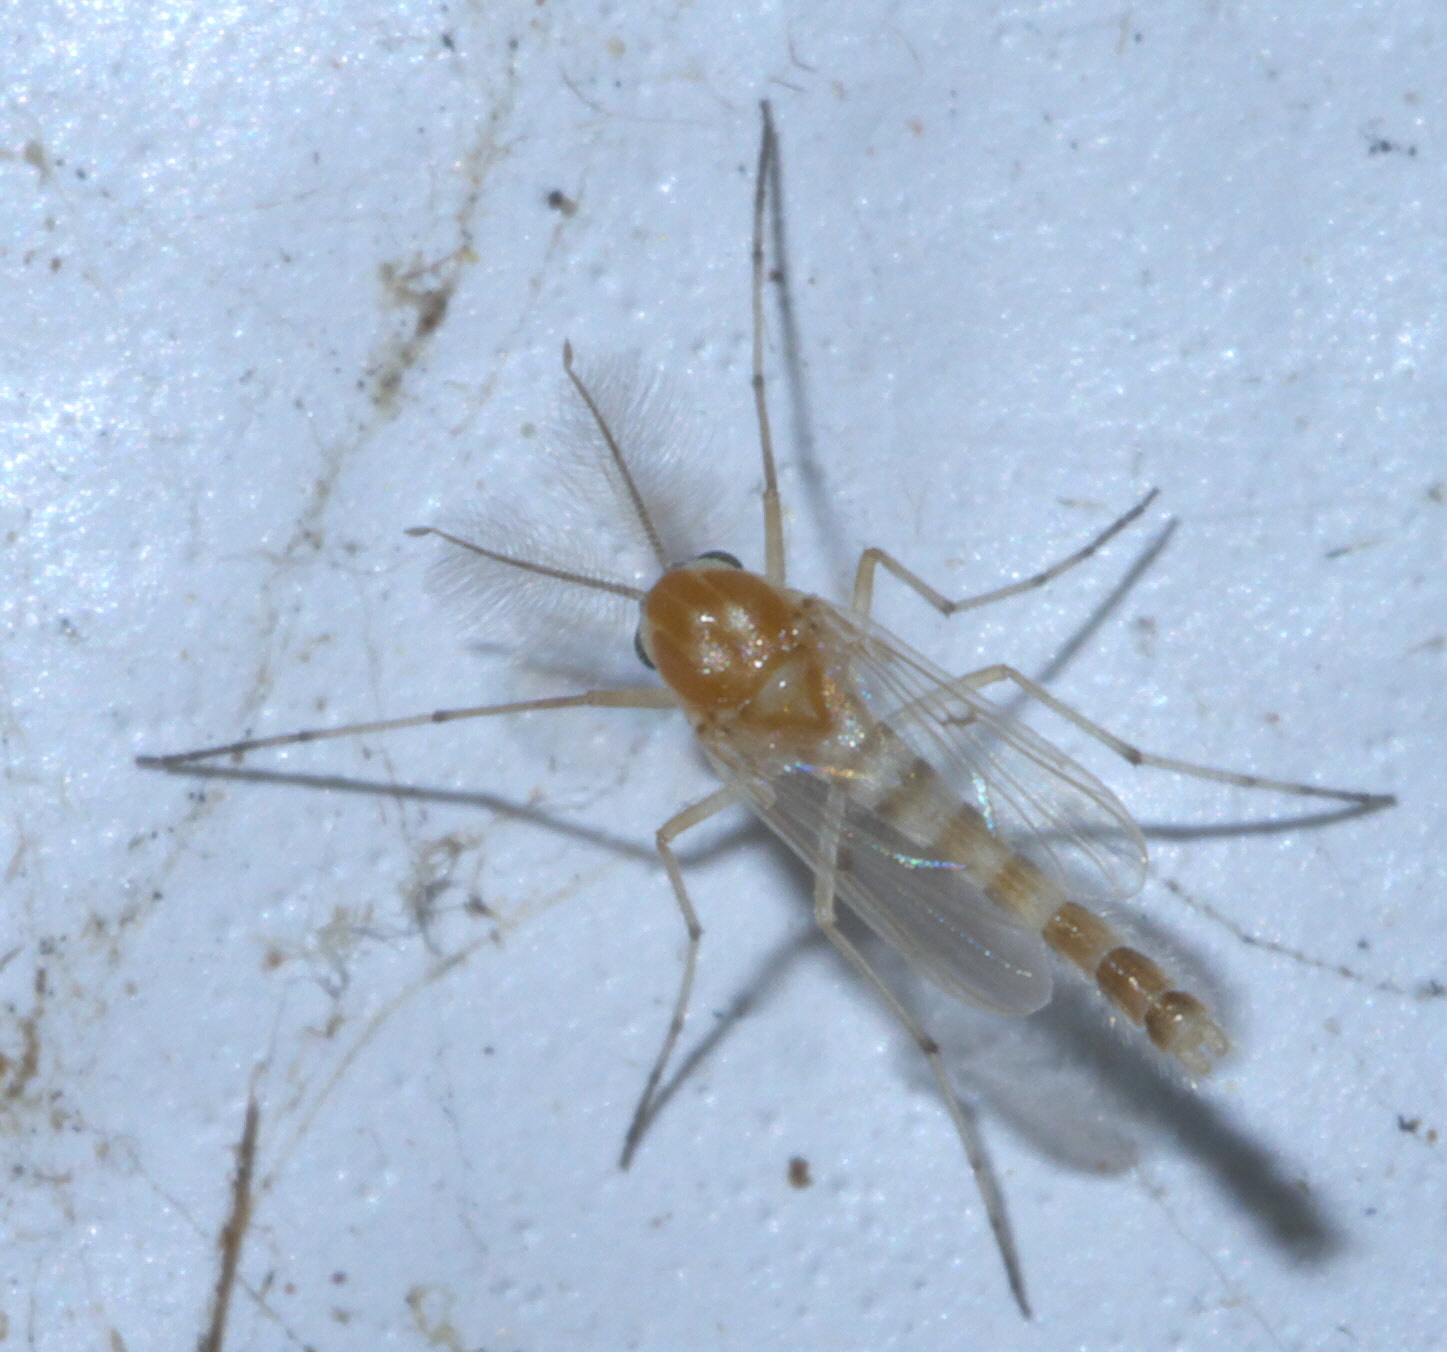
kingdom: Animalia
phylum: Arthropoda
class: Insecta
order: Diptera
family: Chironomidae
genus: Procladius
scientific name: Procladius bellus
